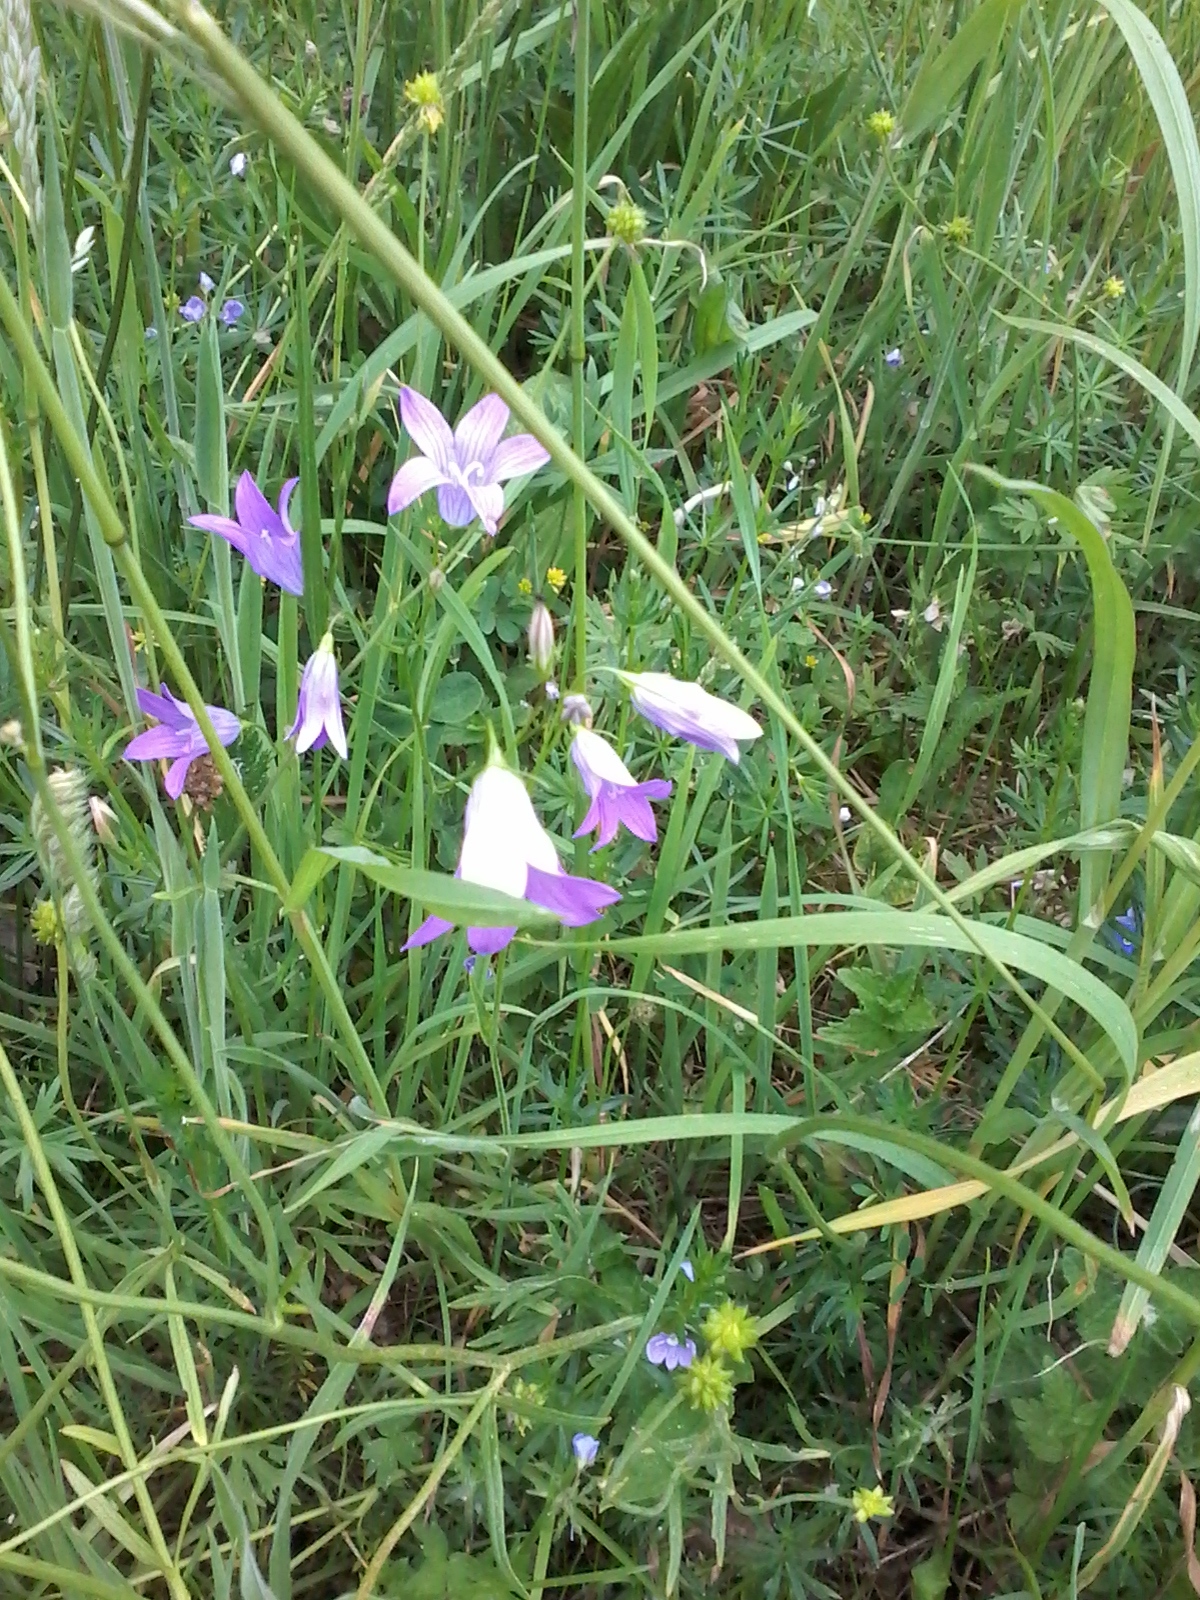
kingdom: Plantae
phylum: Tracheophyta
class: Magnoliopsida
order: Asterales
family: Campanulaceae
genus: Campanula
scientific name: Campanula patula
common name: Spreading bellflower
